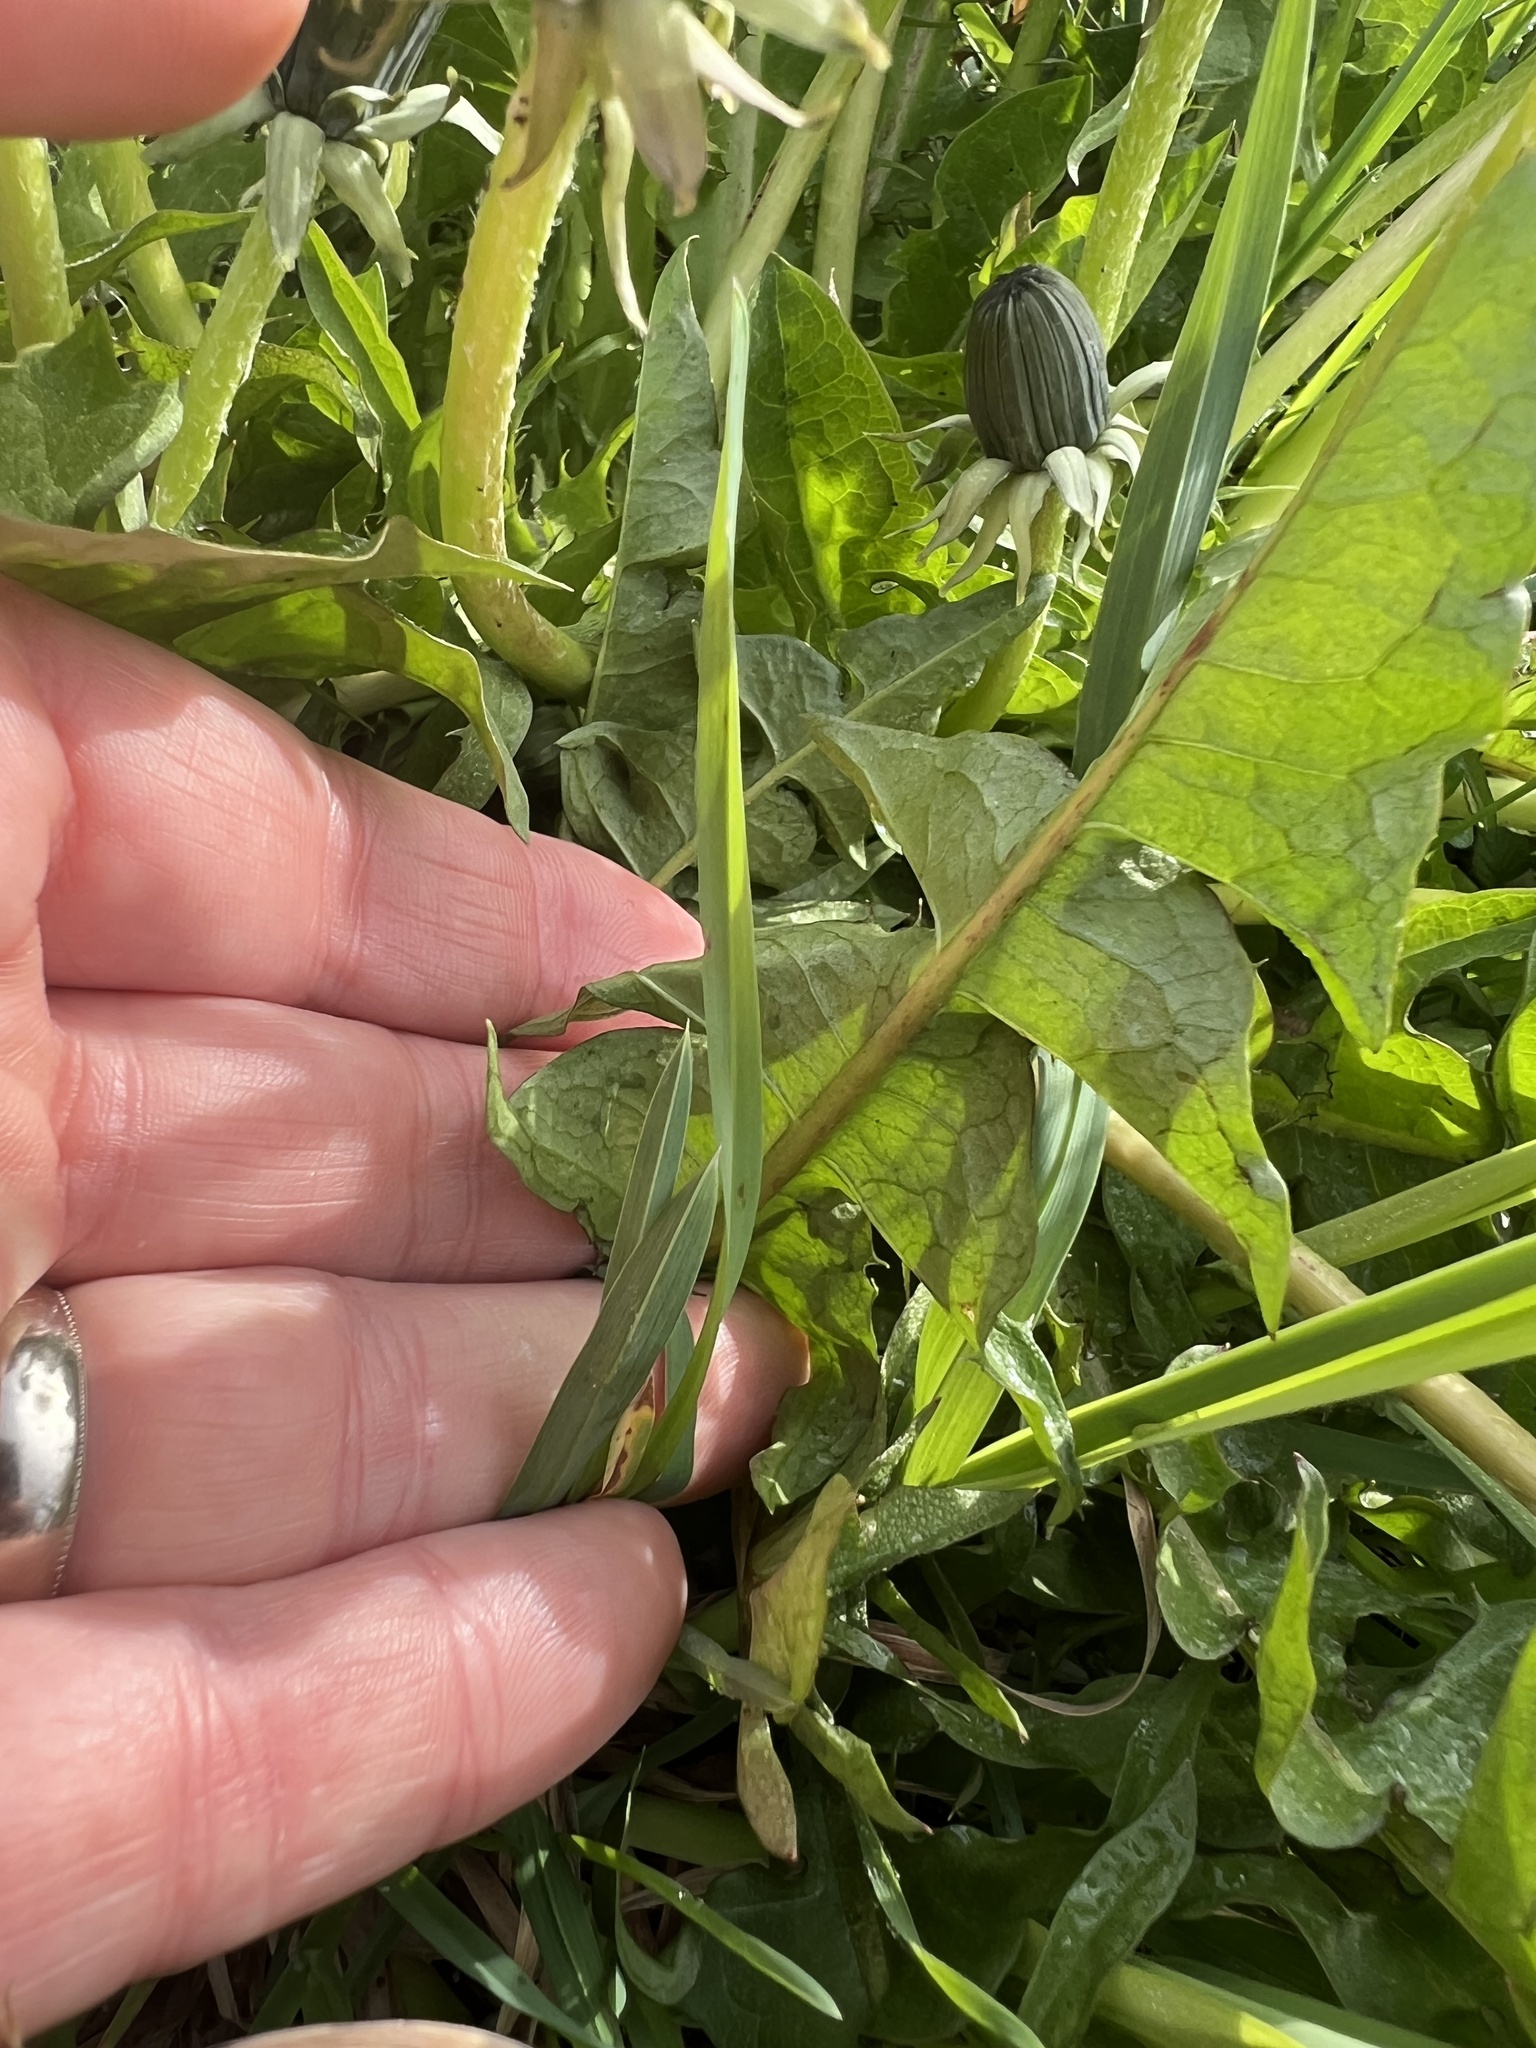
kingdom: Plantae
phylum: Tracheophyta
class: Magnoliopsida
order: Asterales
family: Asteraceae
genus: Taraxacum
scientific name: Taraxacum officinale
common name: Common dandelion
